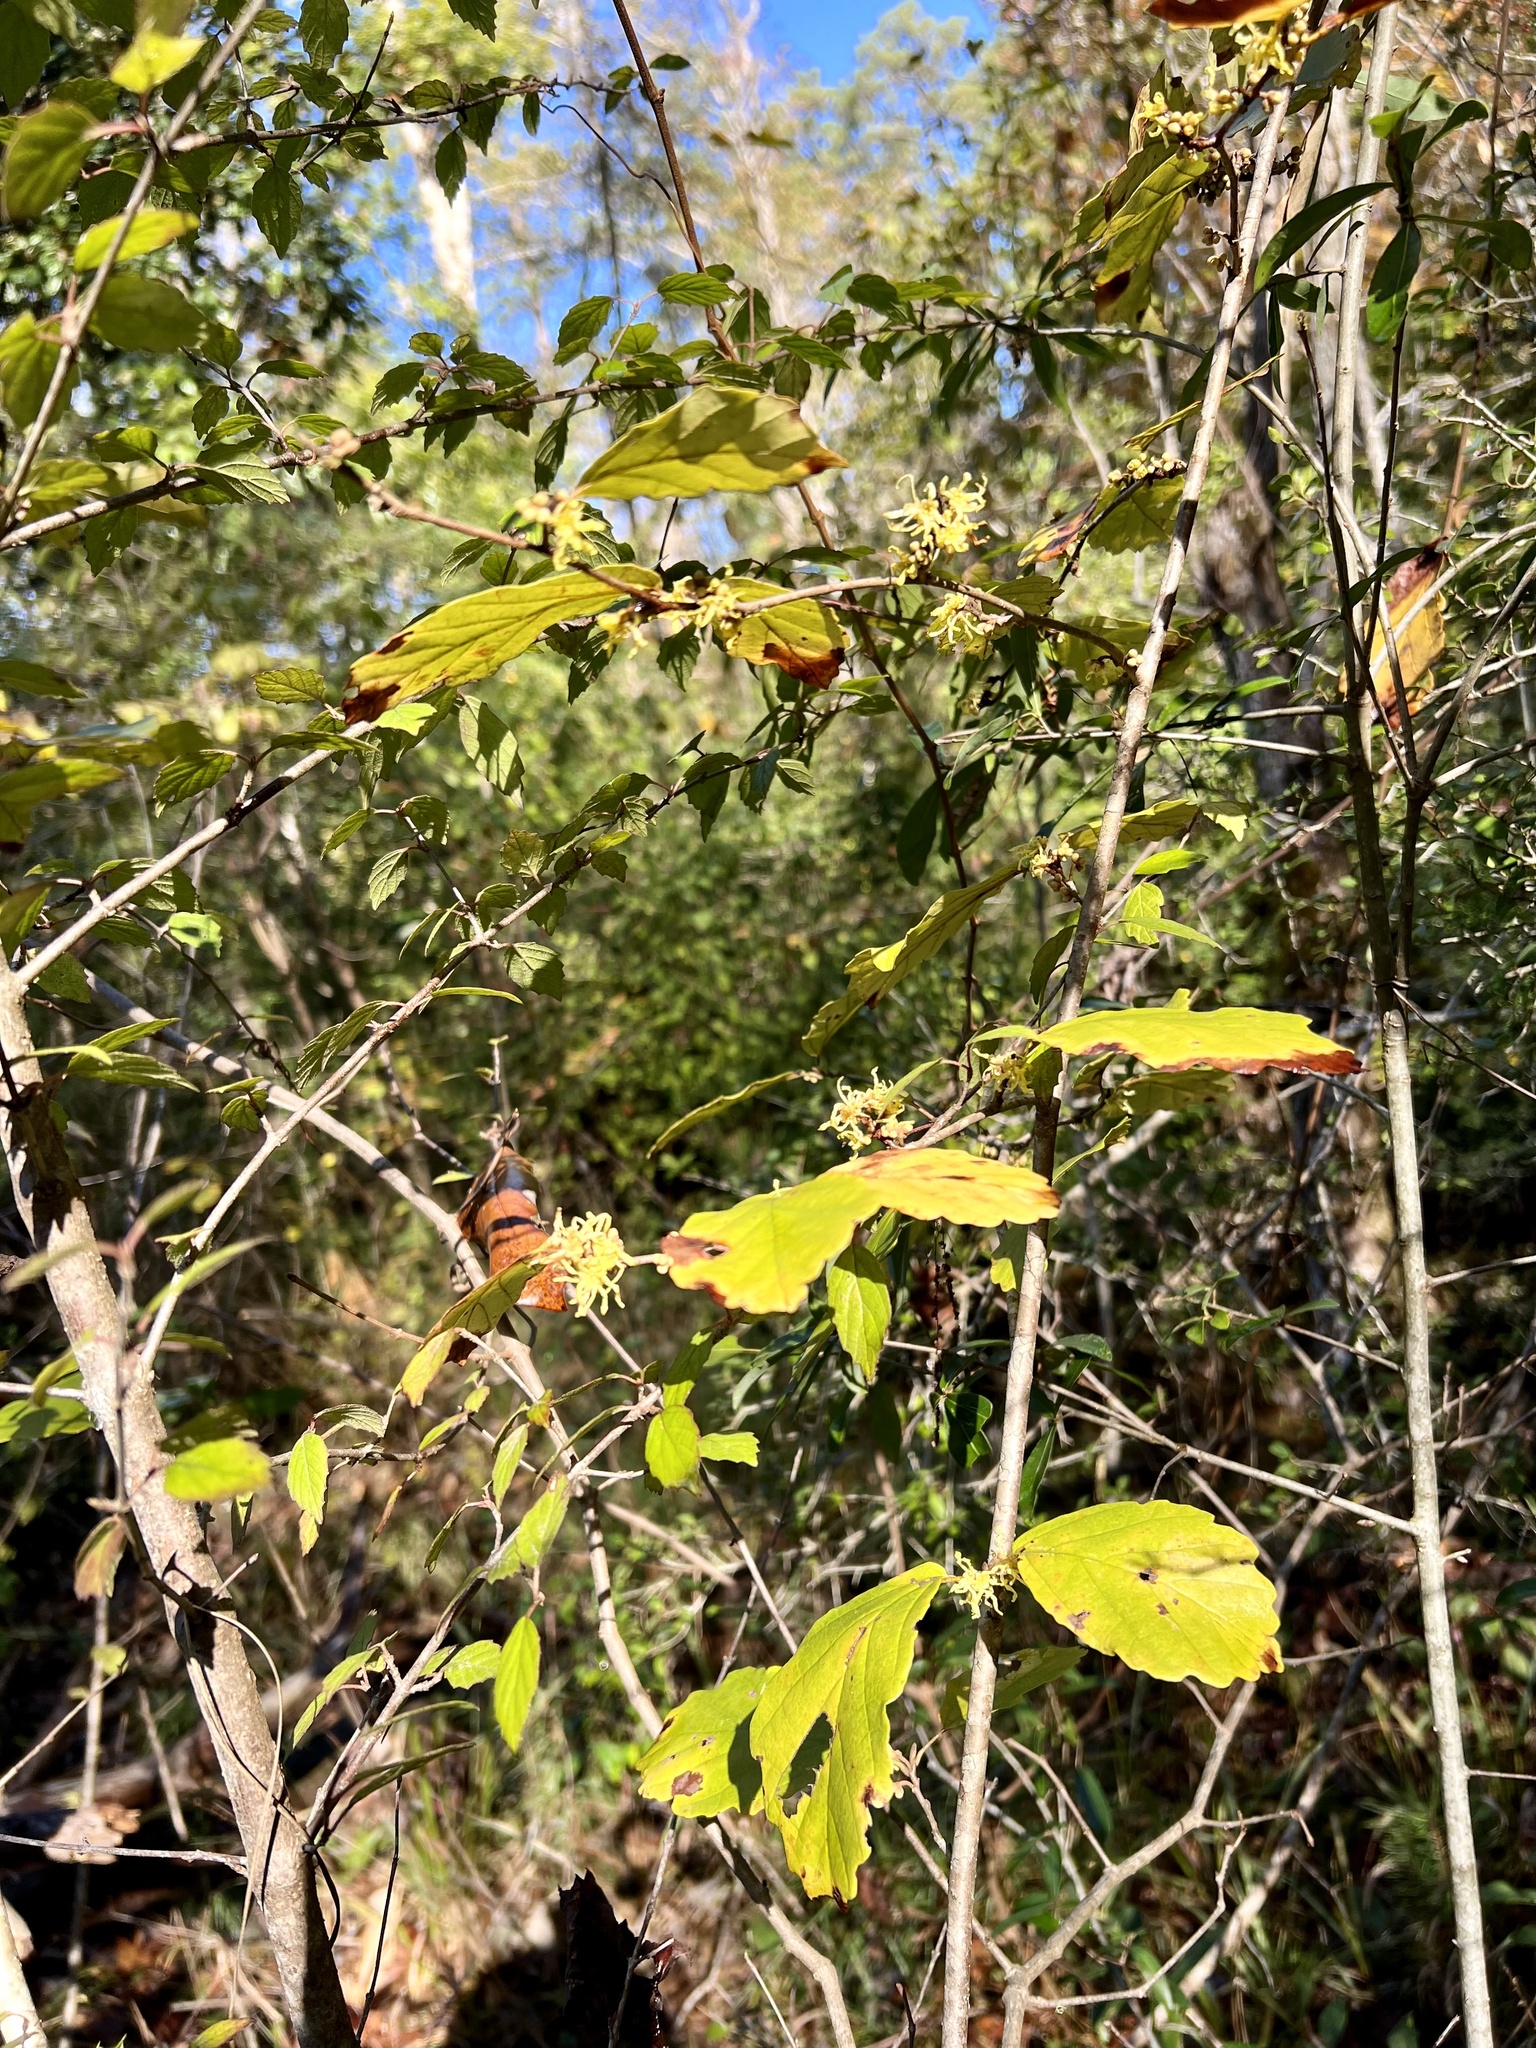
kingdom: Plantae
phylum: Tracheophyta
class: Magnoliopsida
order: Saxifragales
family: Hamamelidaceae
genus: Hamamelis
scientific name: Hamamelis virginiana
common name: Witch-hazel
